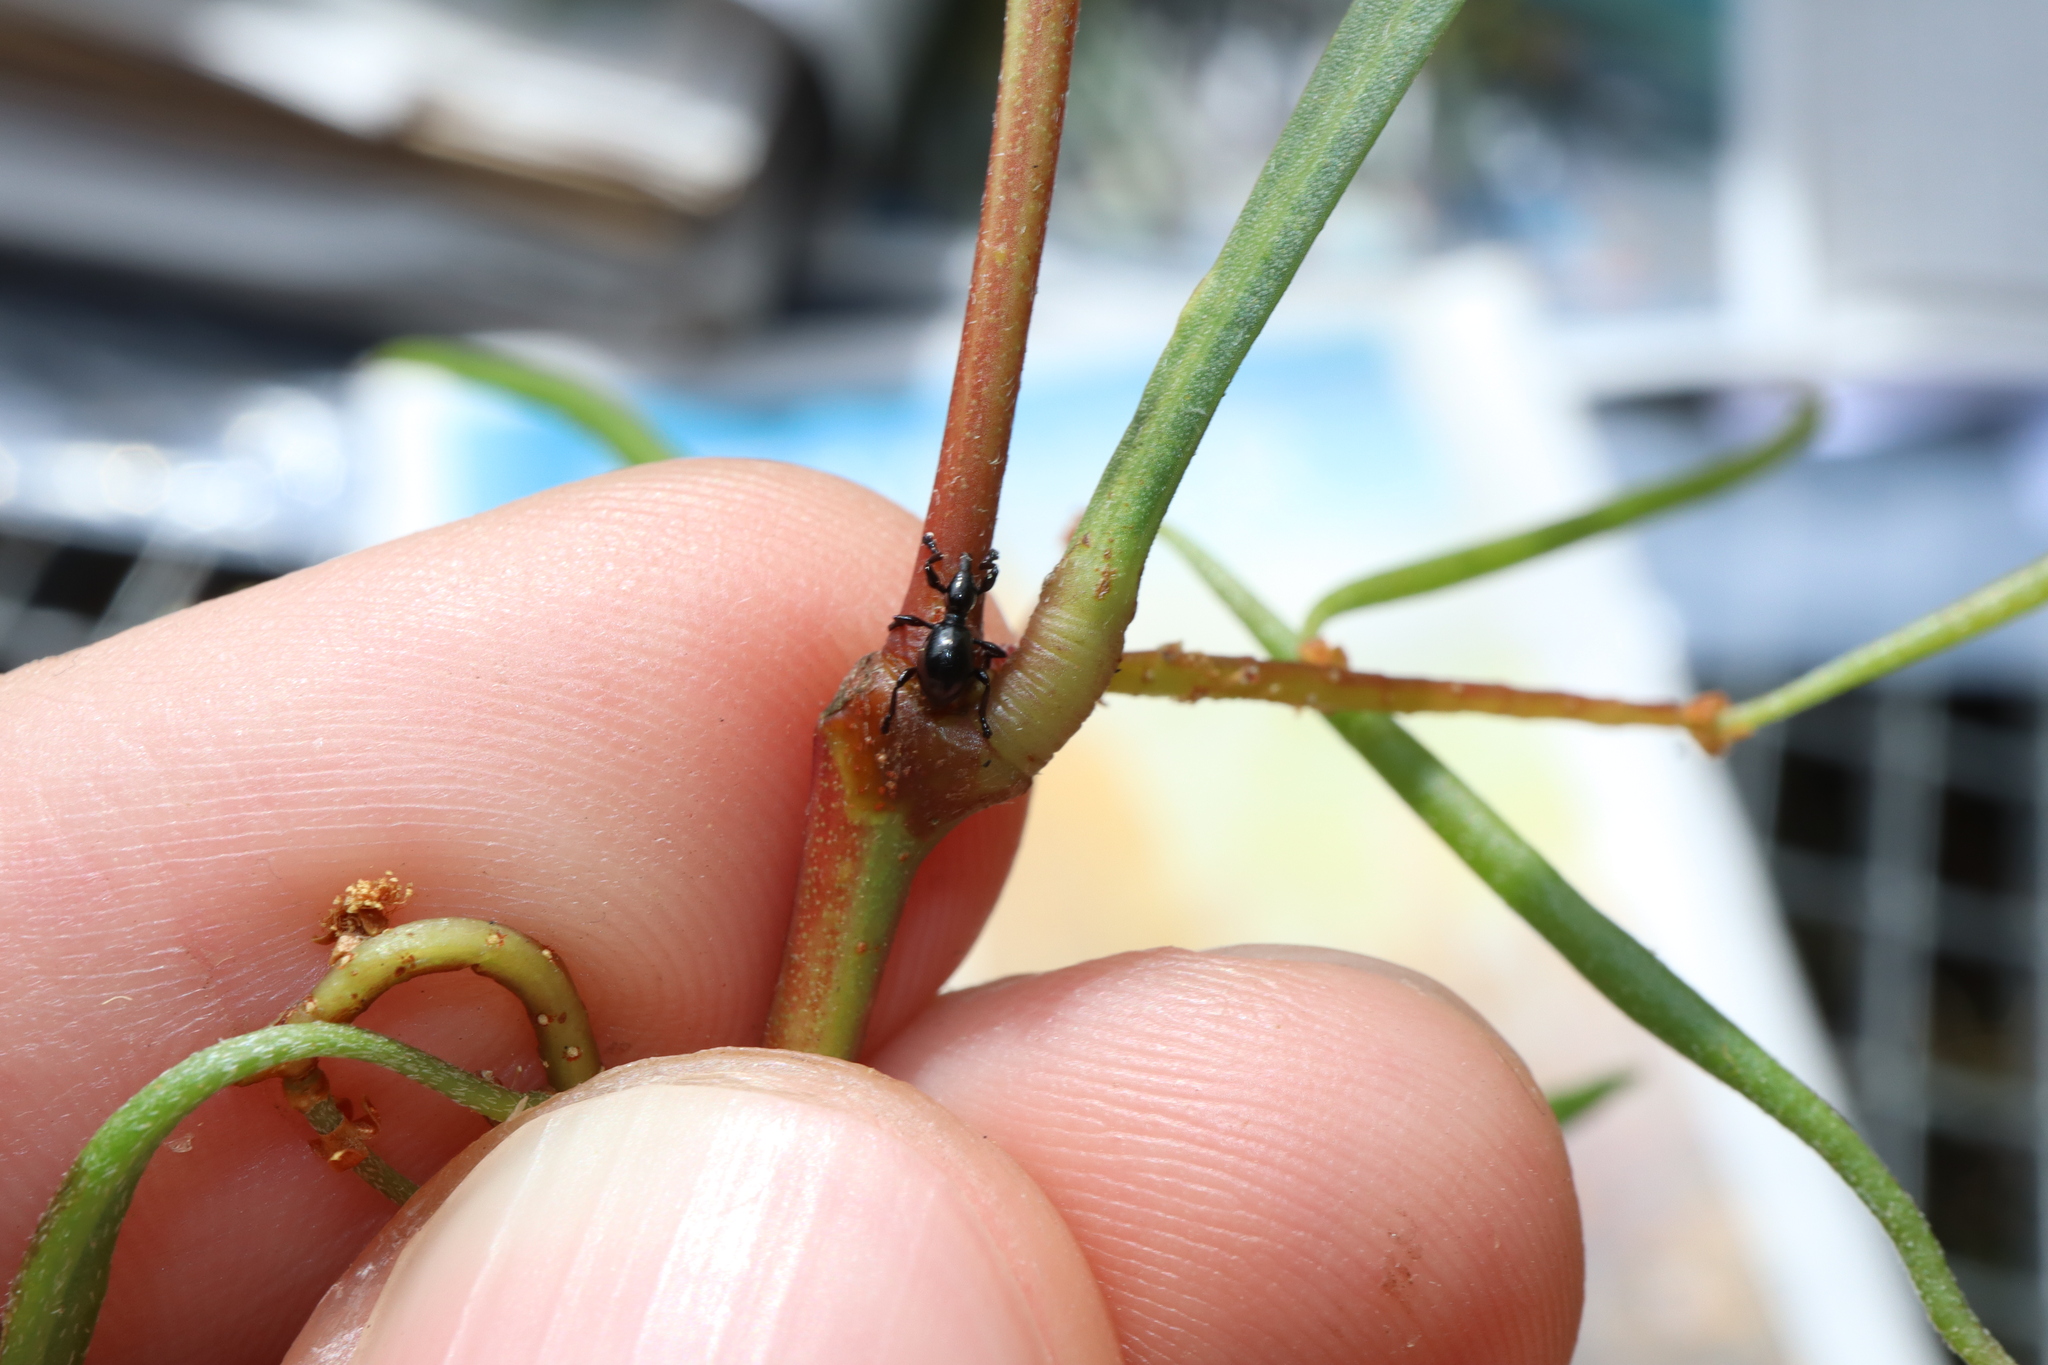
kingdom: Animalia
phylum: Arthropoda
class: Insecta
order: Coleoptera
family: Brentidae
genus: Rhynolaccus
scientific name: Rhynolaccus formicarius
